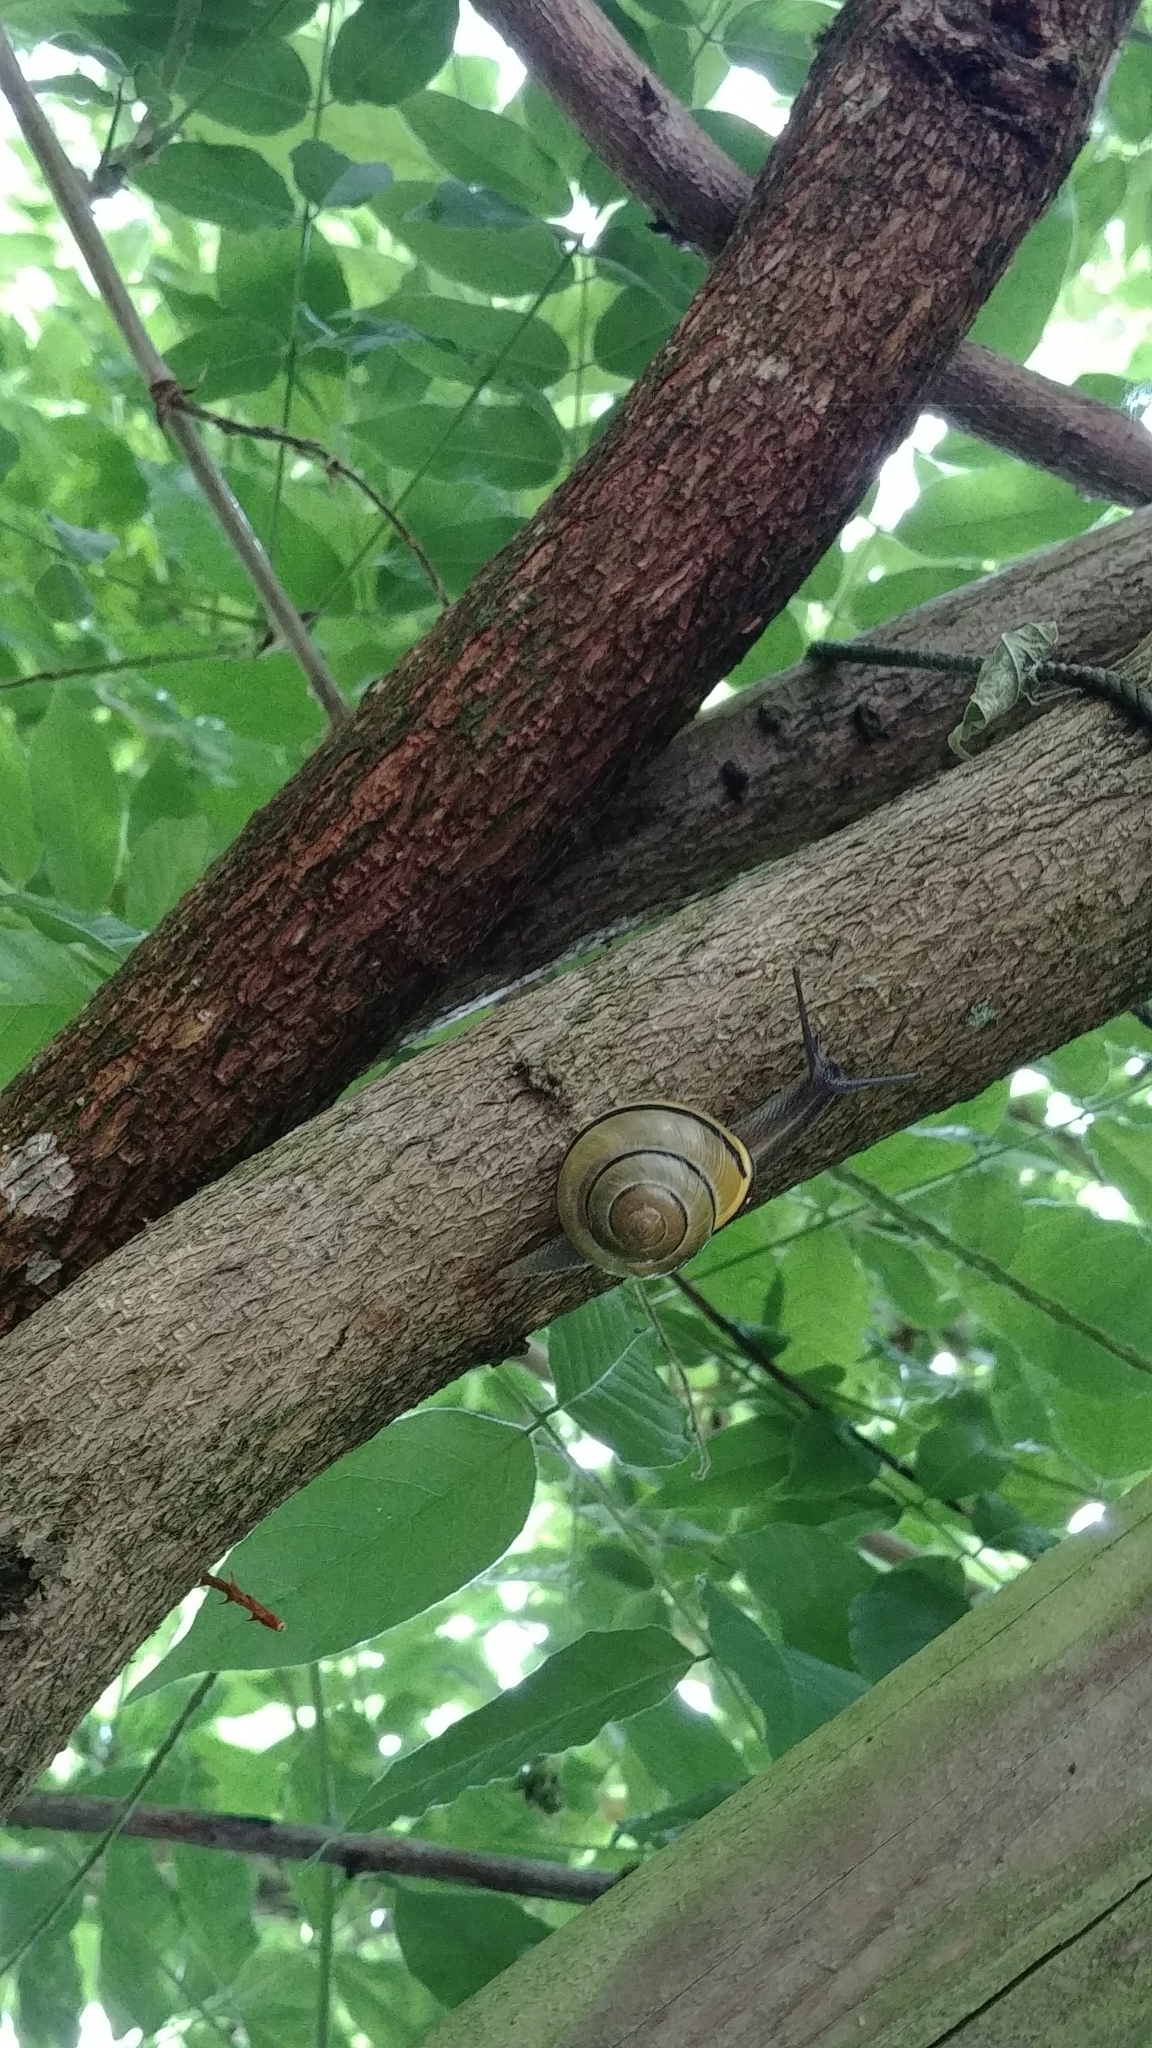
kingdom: Animalia
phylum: Mollusca
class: Gastropoda
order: Stylommatophora
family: Helicidae
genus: Cepaea
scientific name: Cepaea nemoralis
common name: Grovesnail
